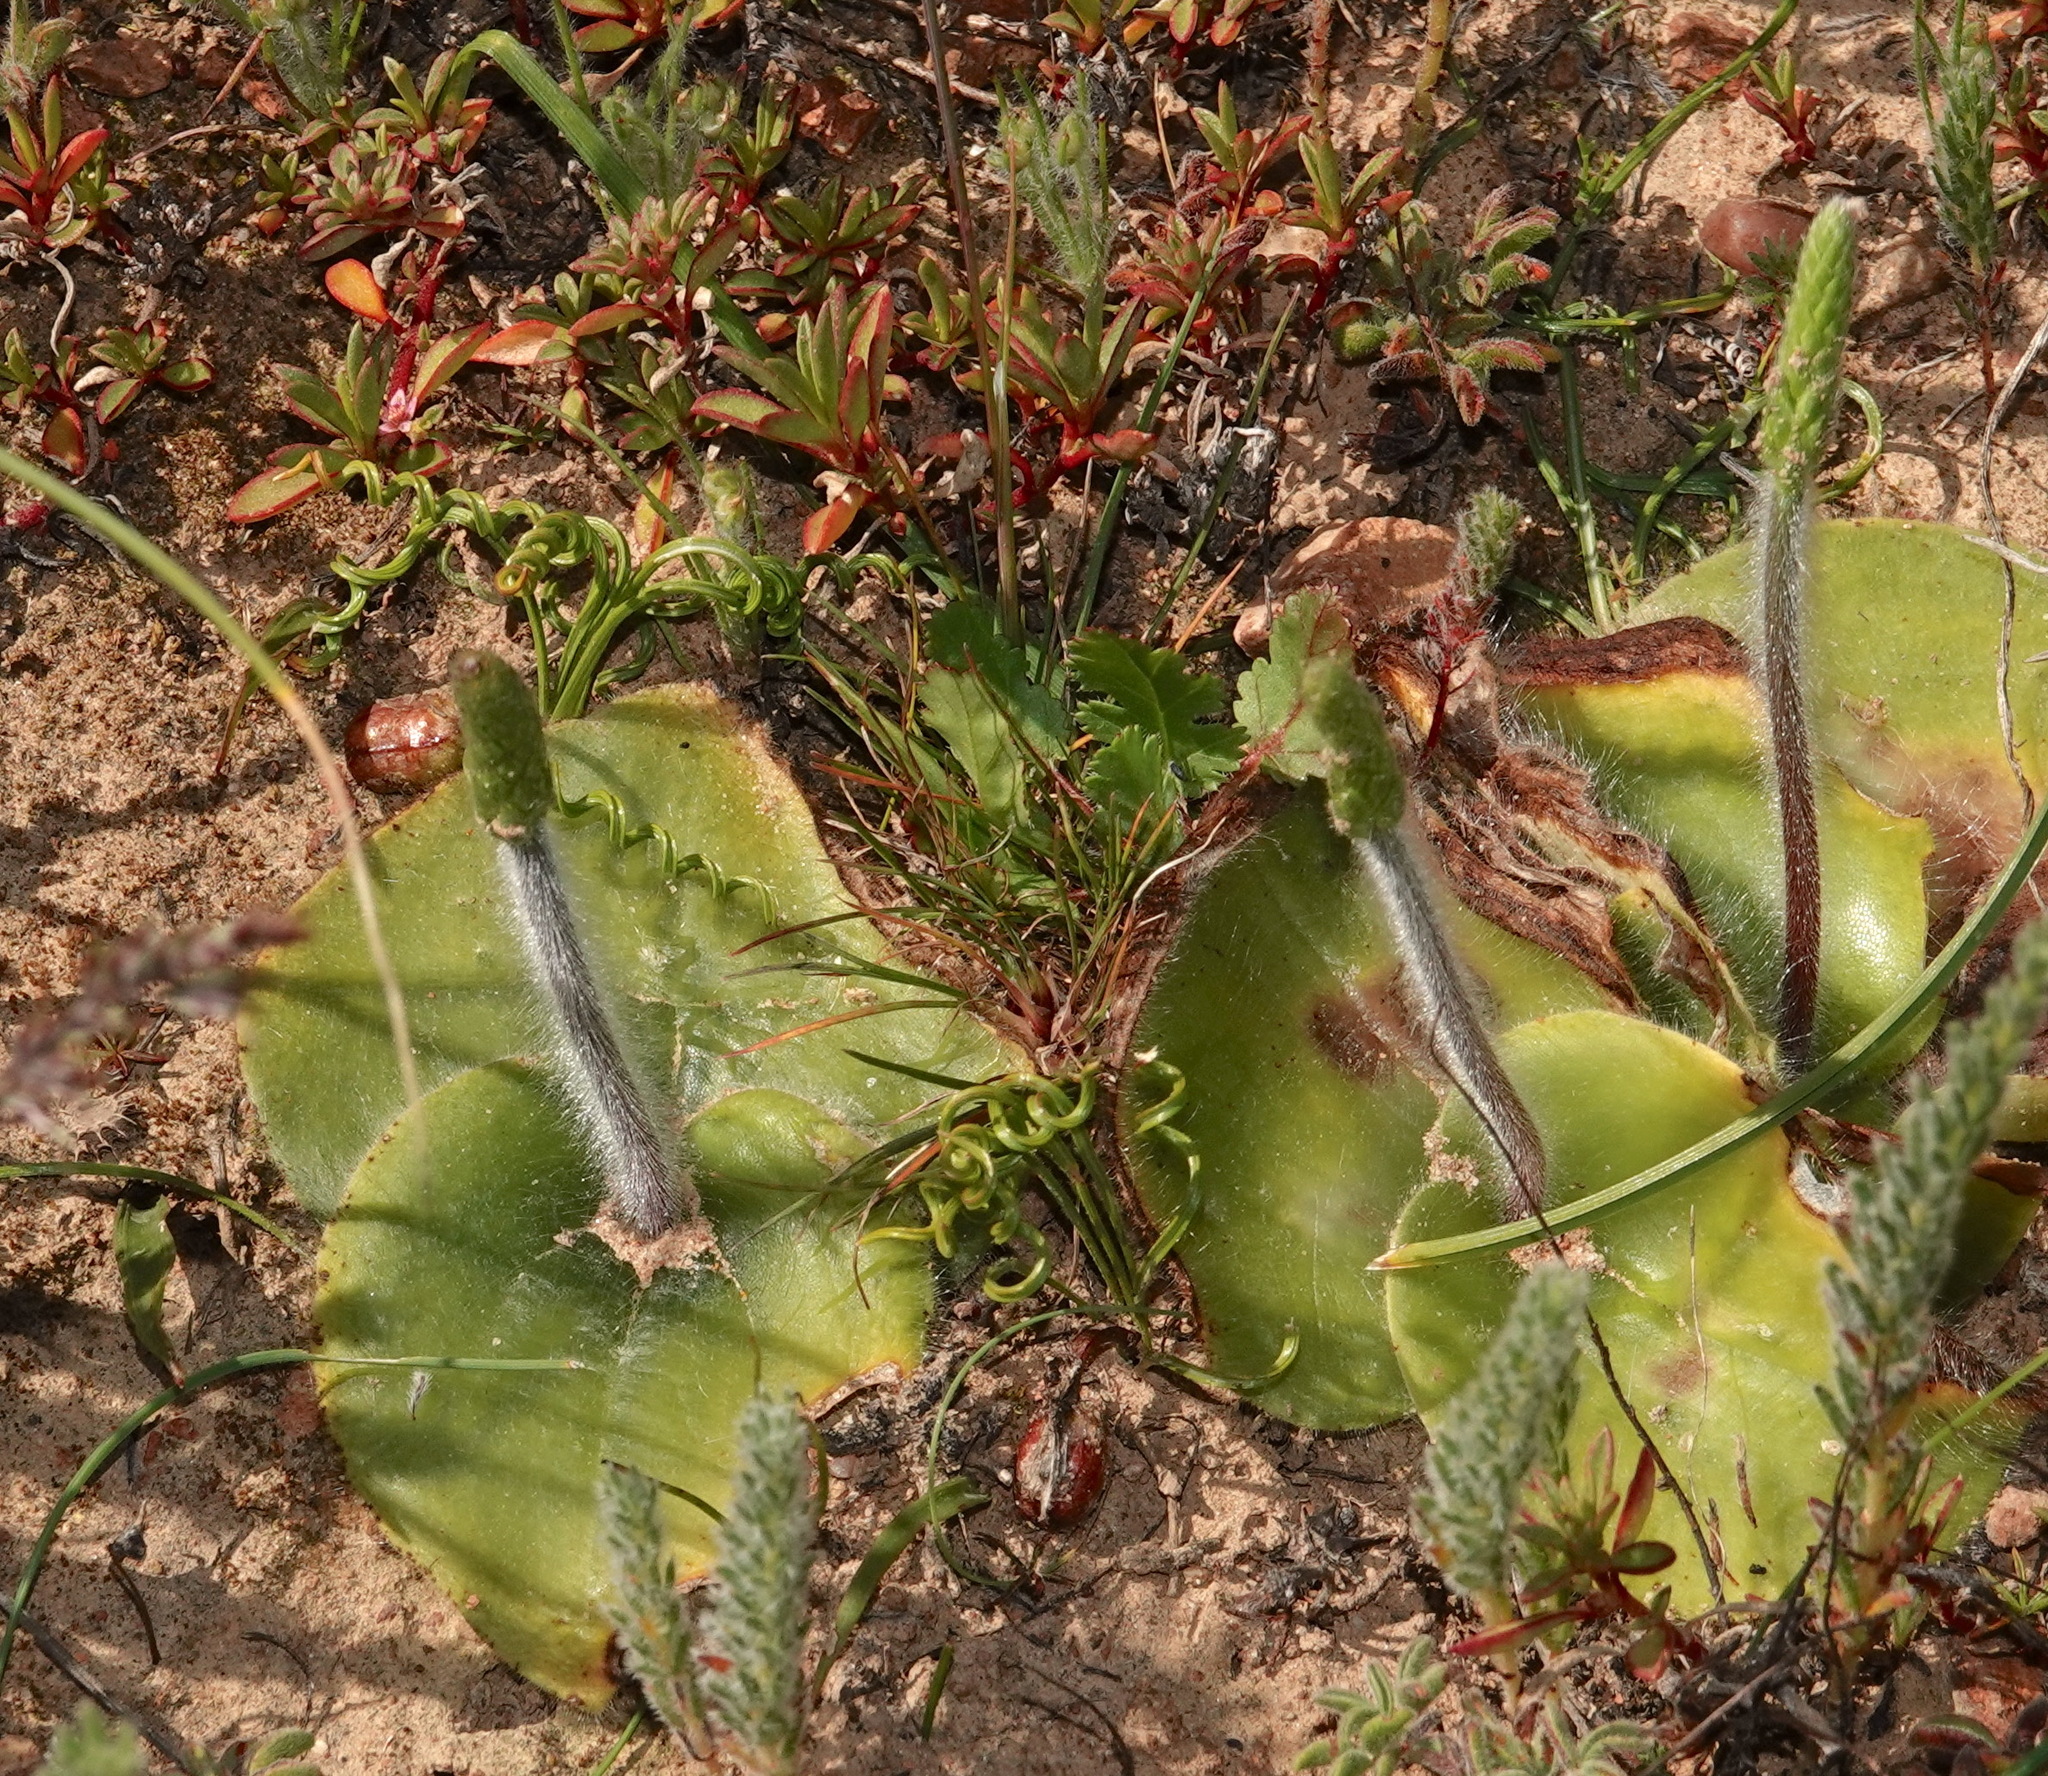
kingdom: Plantae
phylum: Tracheophyta
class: Liliopsida
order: Asparagales
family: Orchidaceae
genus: Holothrix
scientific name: Holothrix villosa
